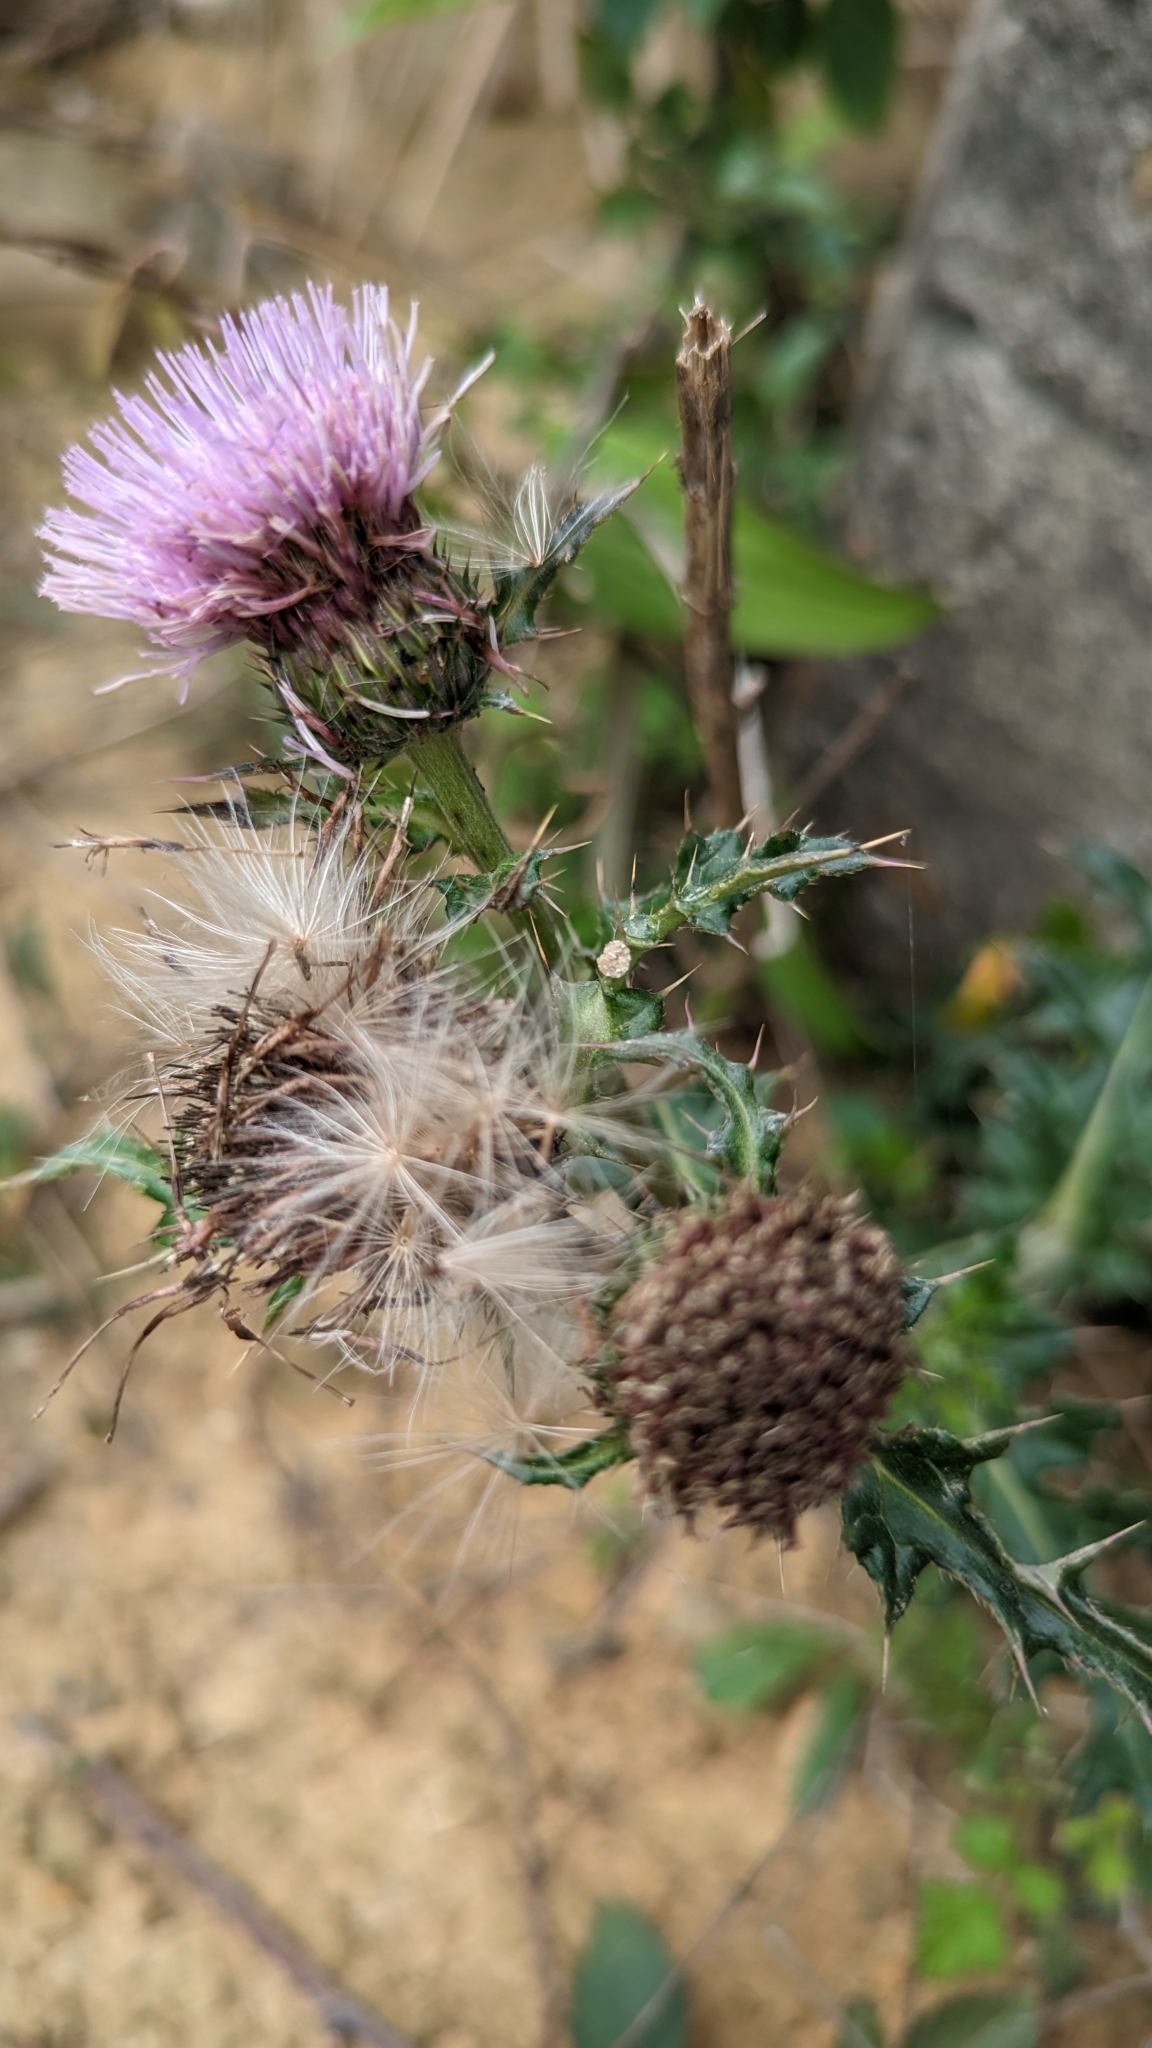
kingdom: Plantae
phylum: Tracheophyta
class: Magnoliopsida
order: Asterales
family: Asteraceae
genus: Cirsium
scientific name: Cirsium japonicum
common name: Japanese thistle
